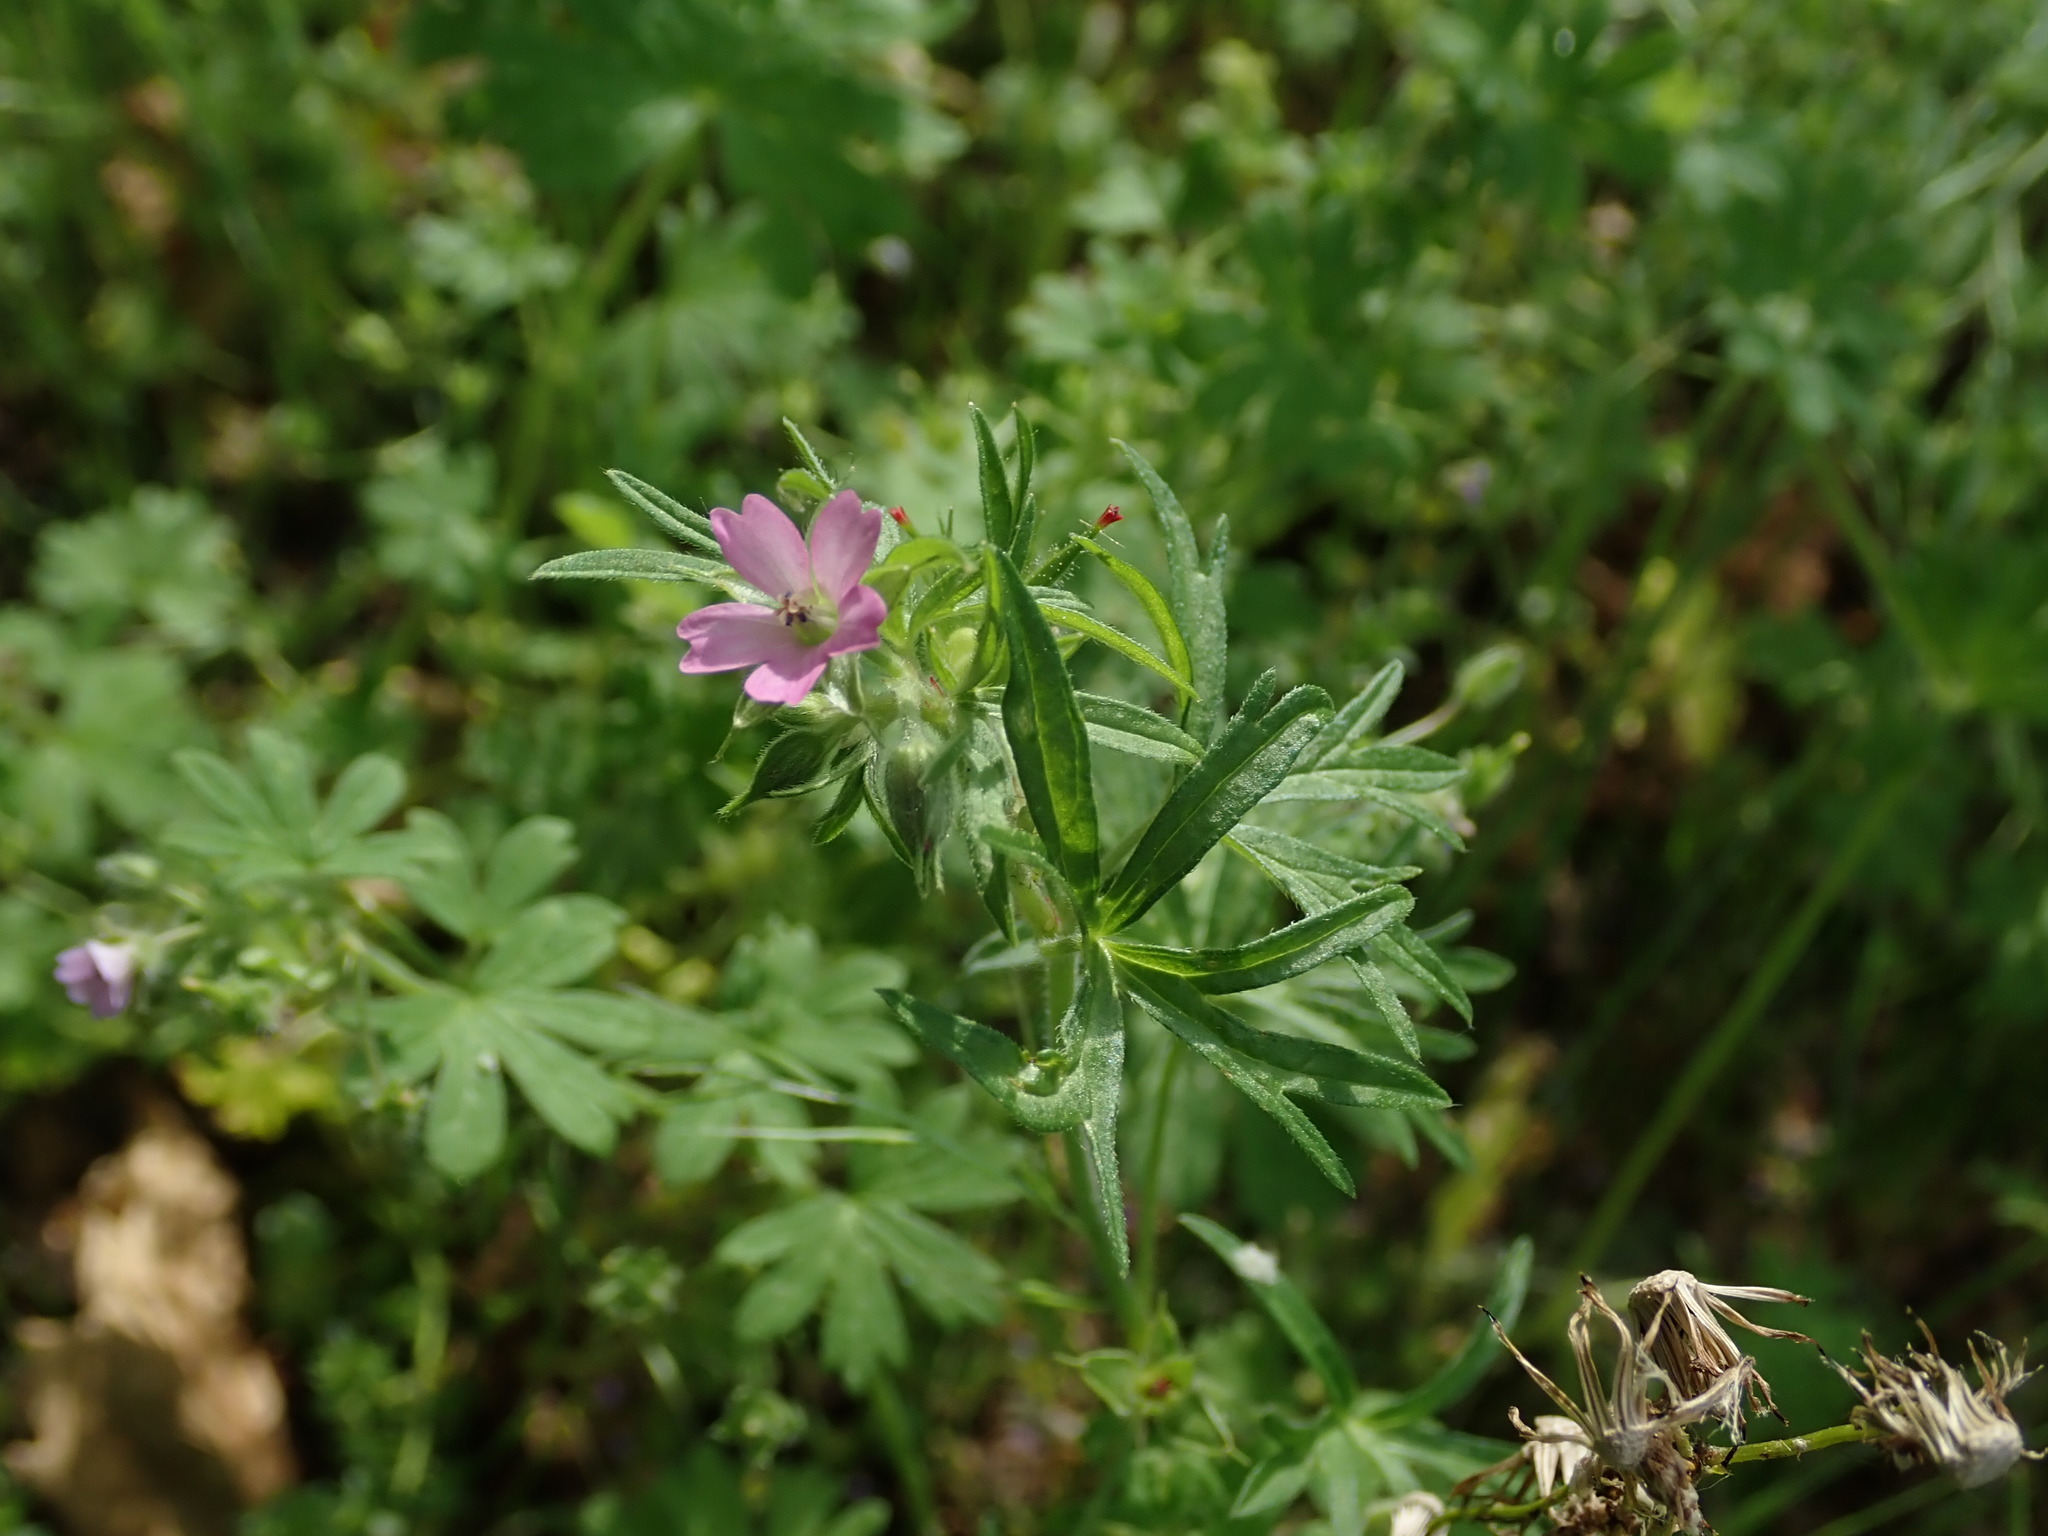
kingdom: Plantae
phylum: Tracheophyta
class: Magnoliopsida
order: Geraniales
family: Geraniaceae
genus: Geranium
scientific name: Geranium dissectum
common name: Cut-leaved crane's-bill
